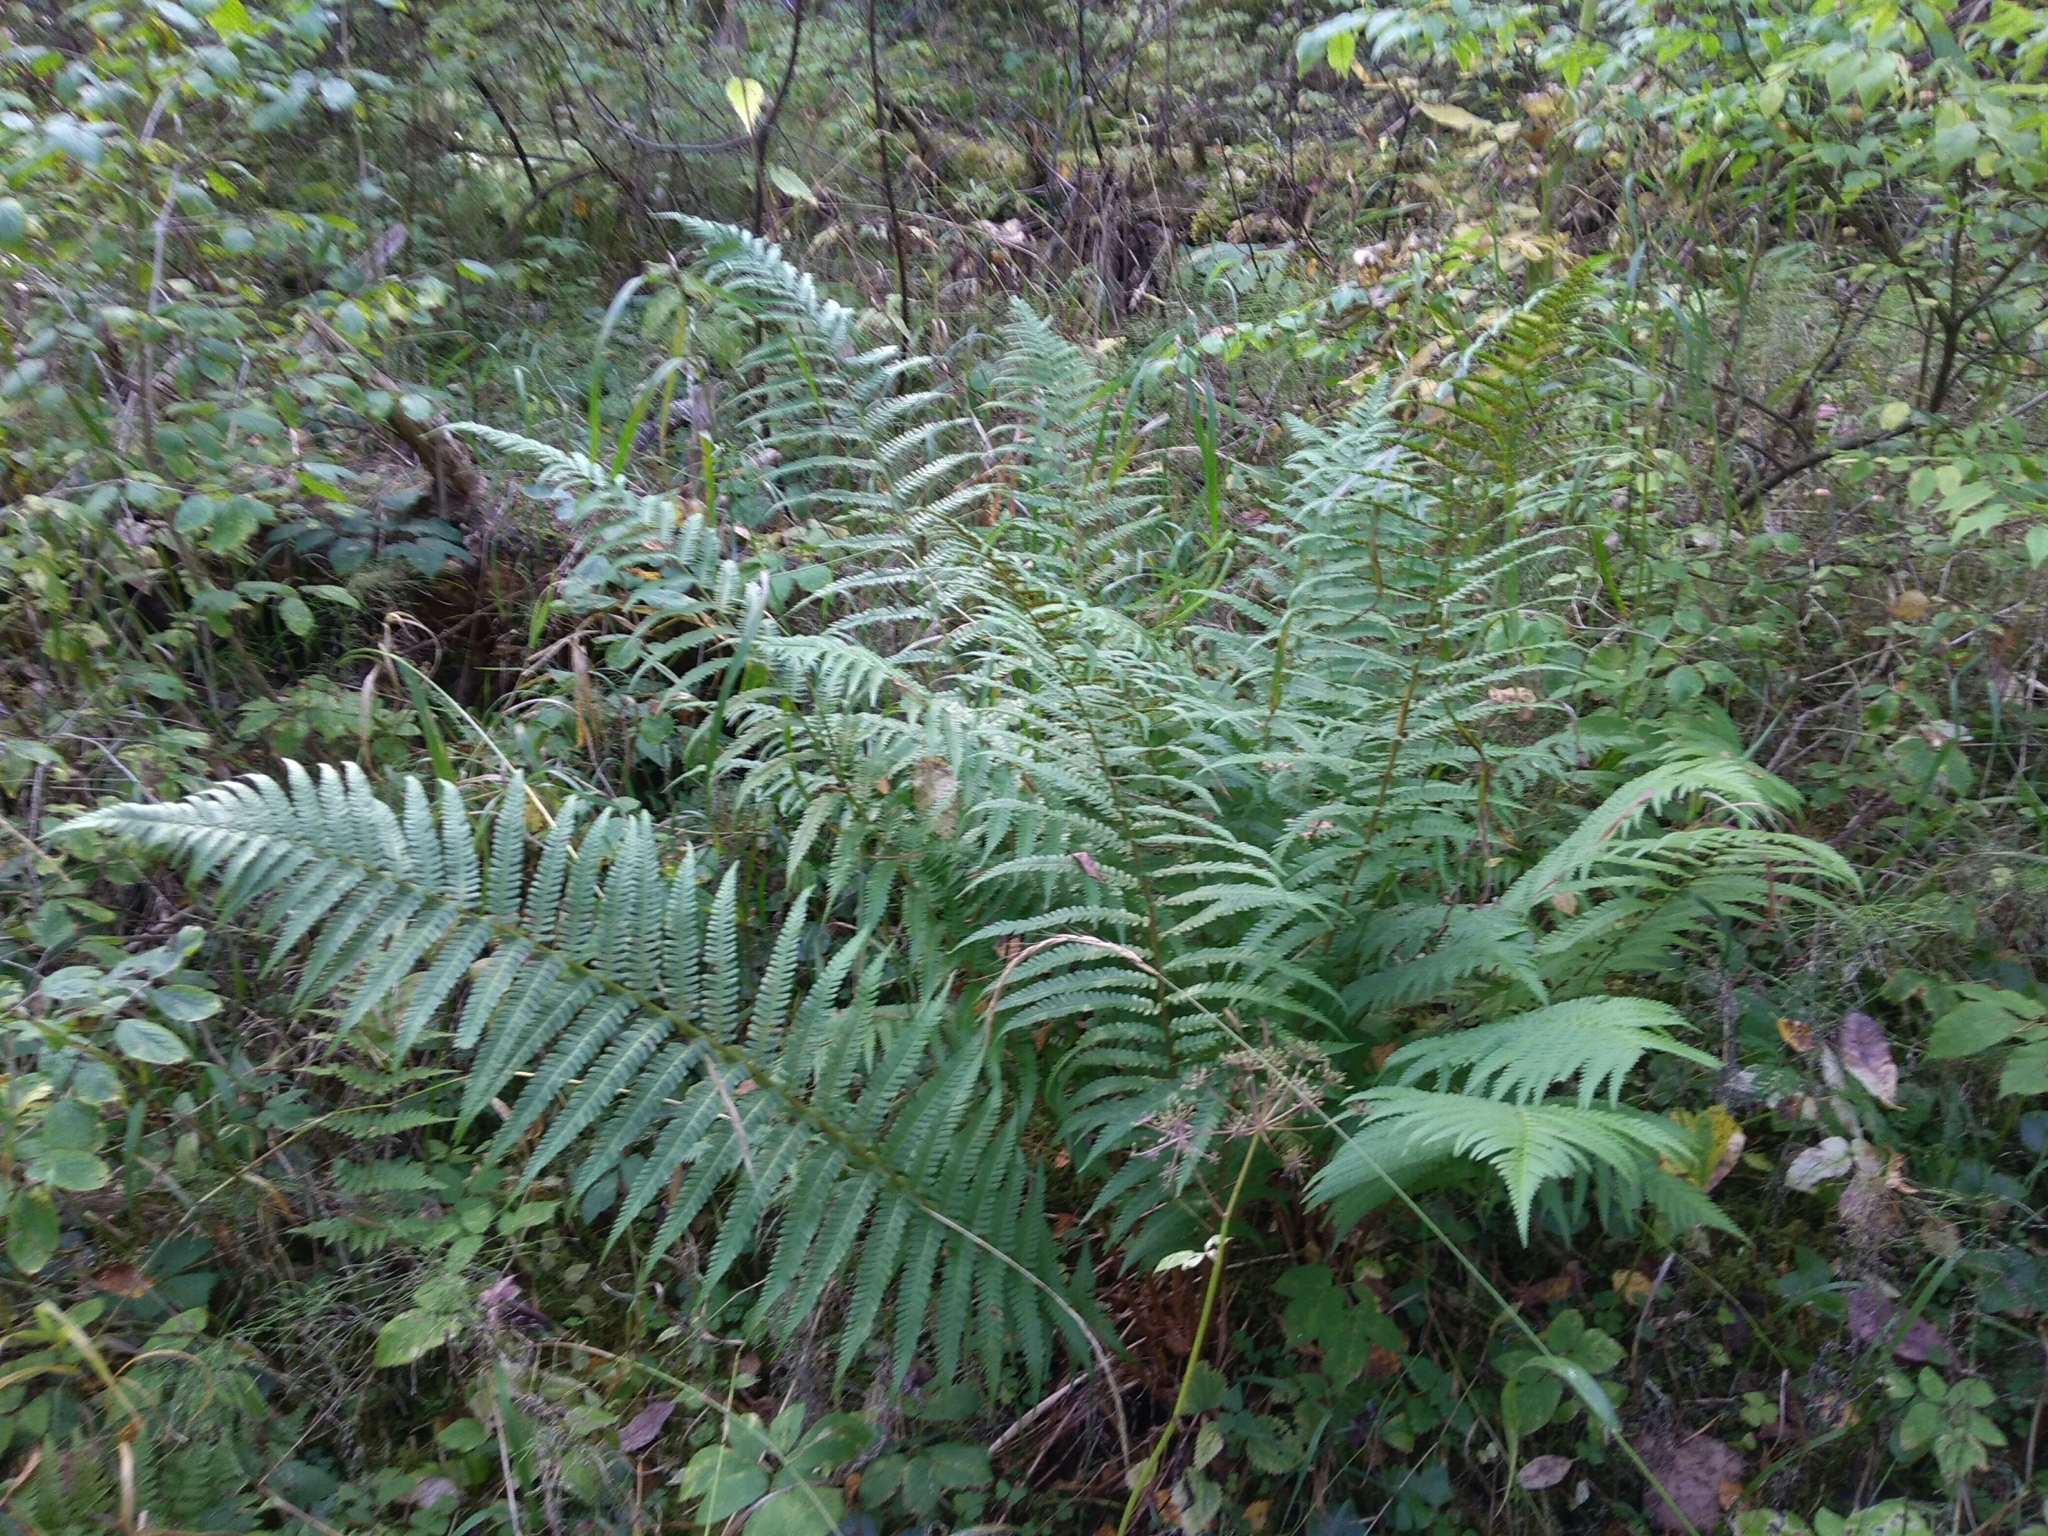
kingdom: Plantae
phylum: Tracheophyta
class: Polypodiopsida
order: Polypodiales
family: Dryopteridaceae
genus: Dryopteris
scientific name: Dryopteris filix-mas
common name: Male fern
